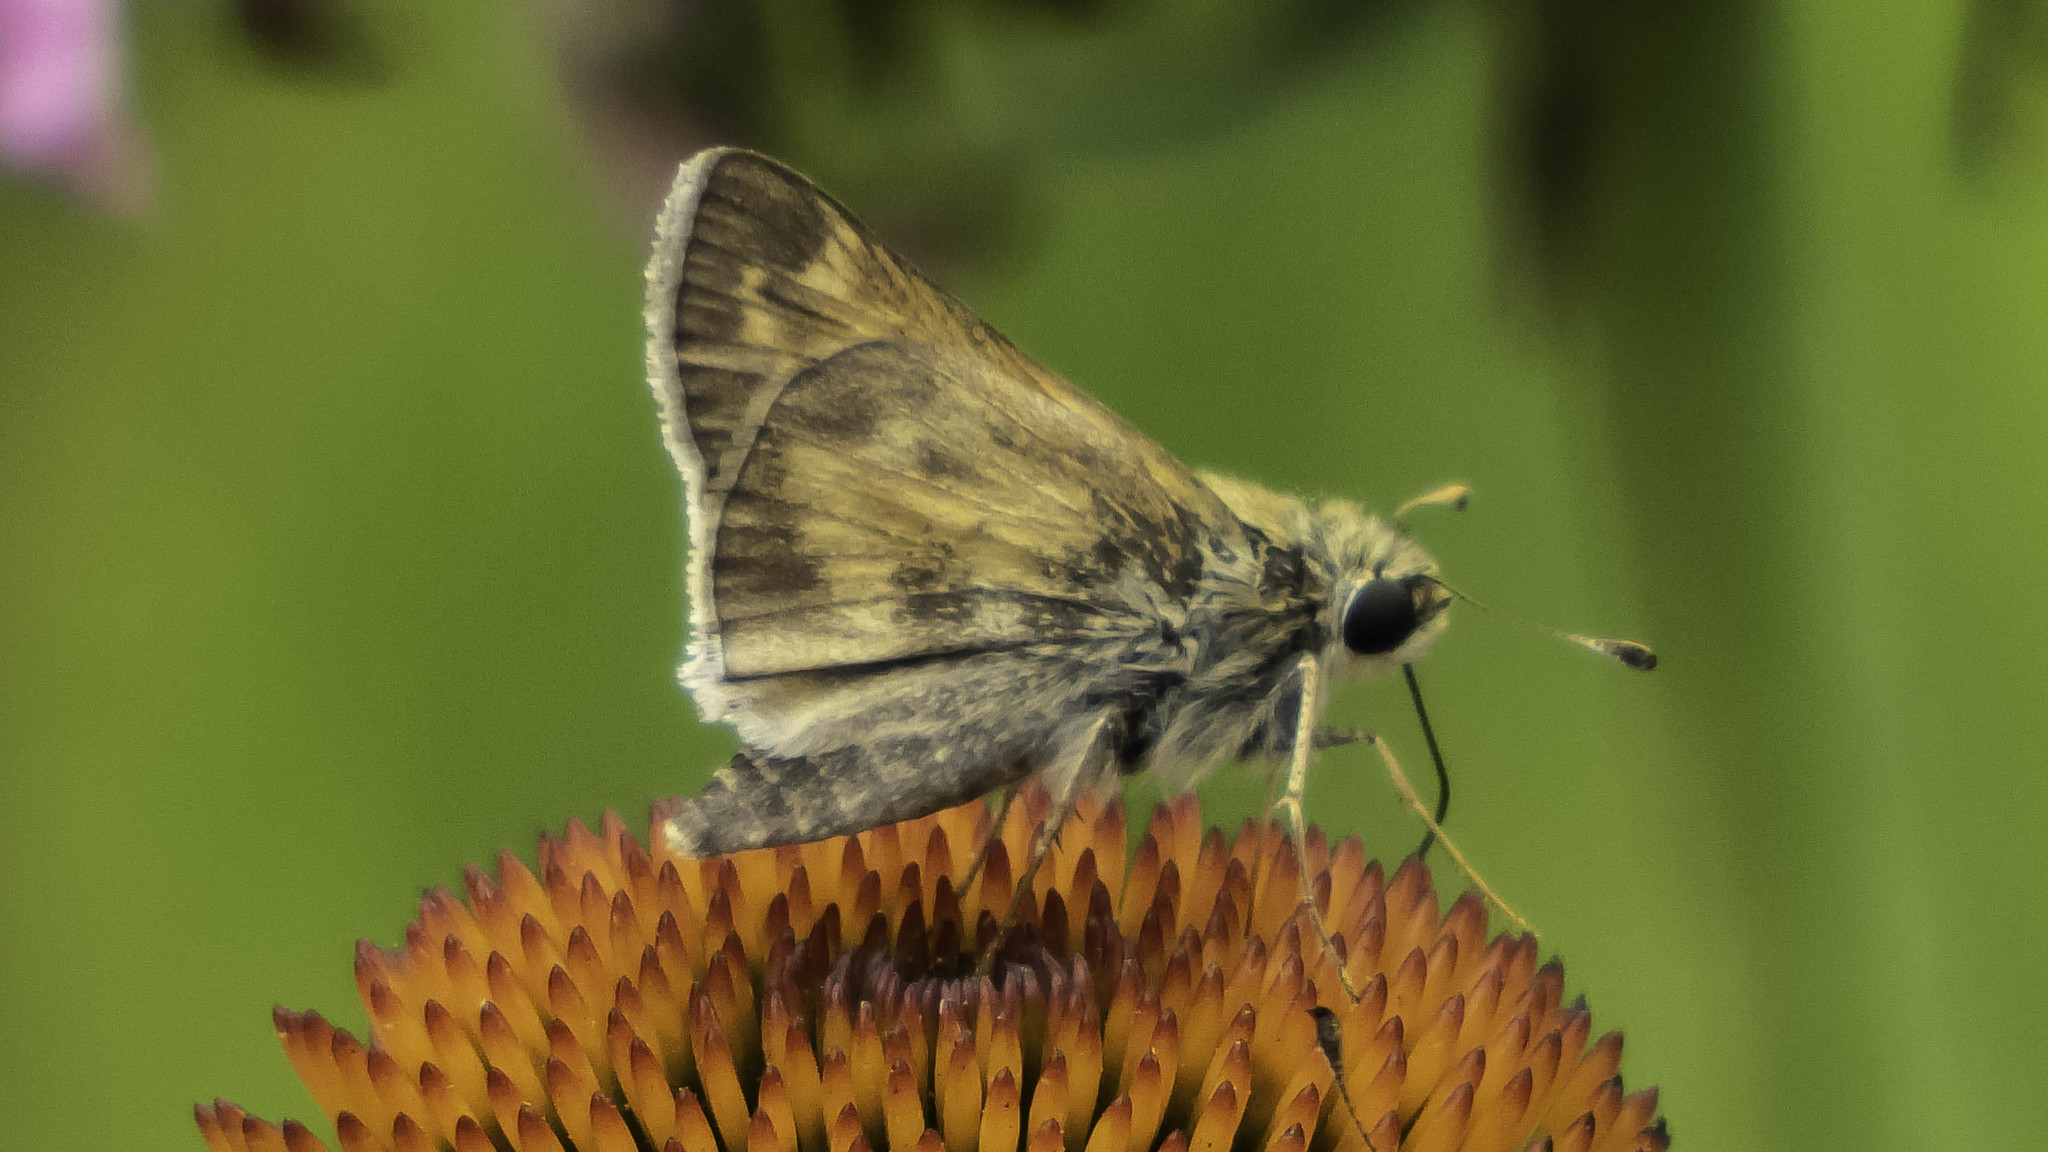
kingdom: Animalia
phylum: Arthropoda
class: Insecta
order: Lepidoptera
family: Hesperiidae
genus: Atalopedes
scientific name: Atalopedes
